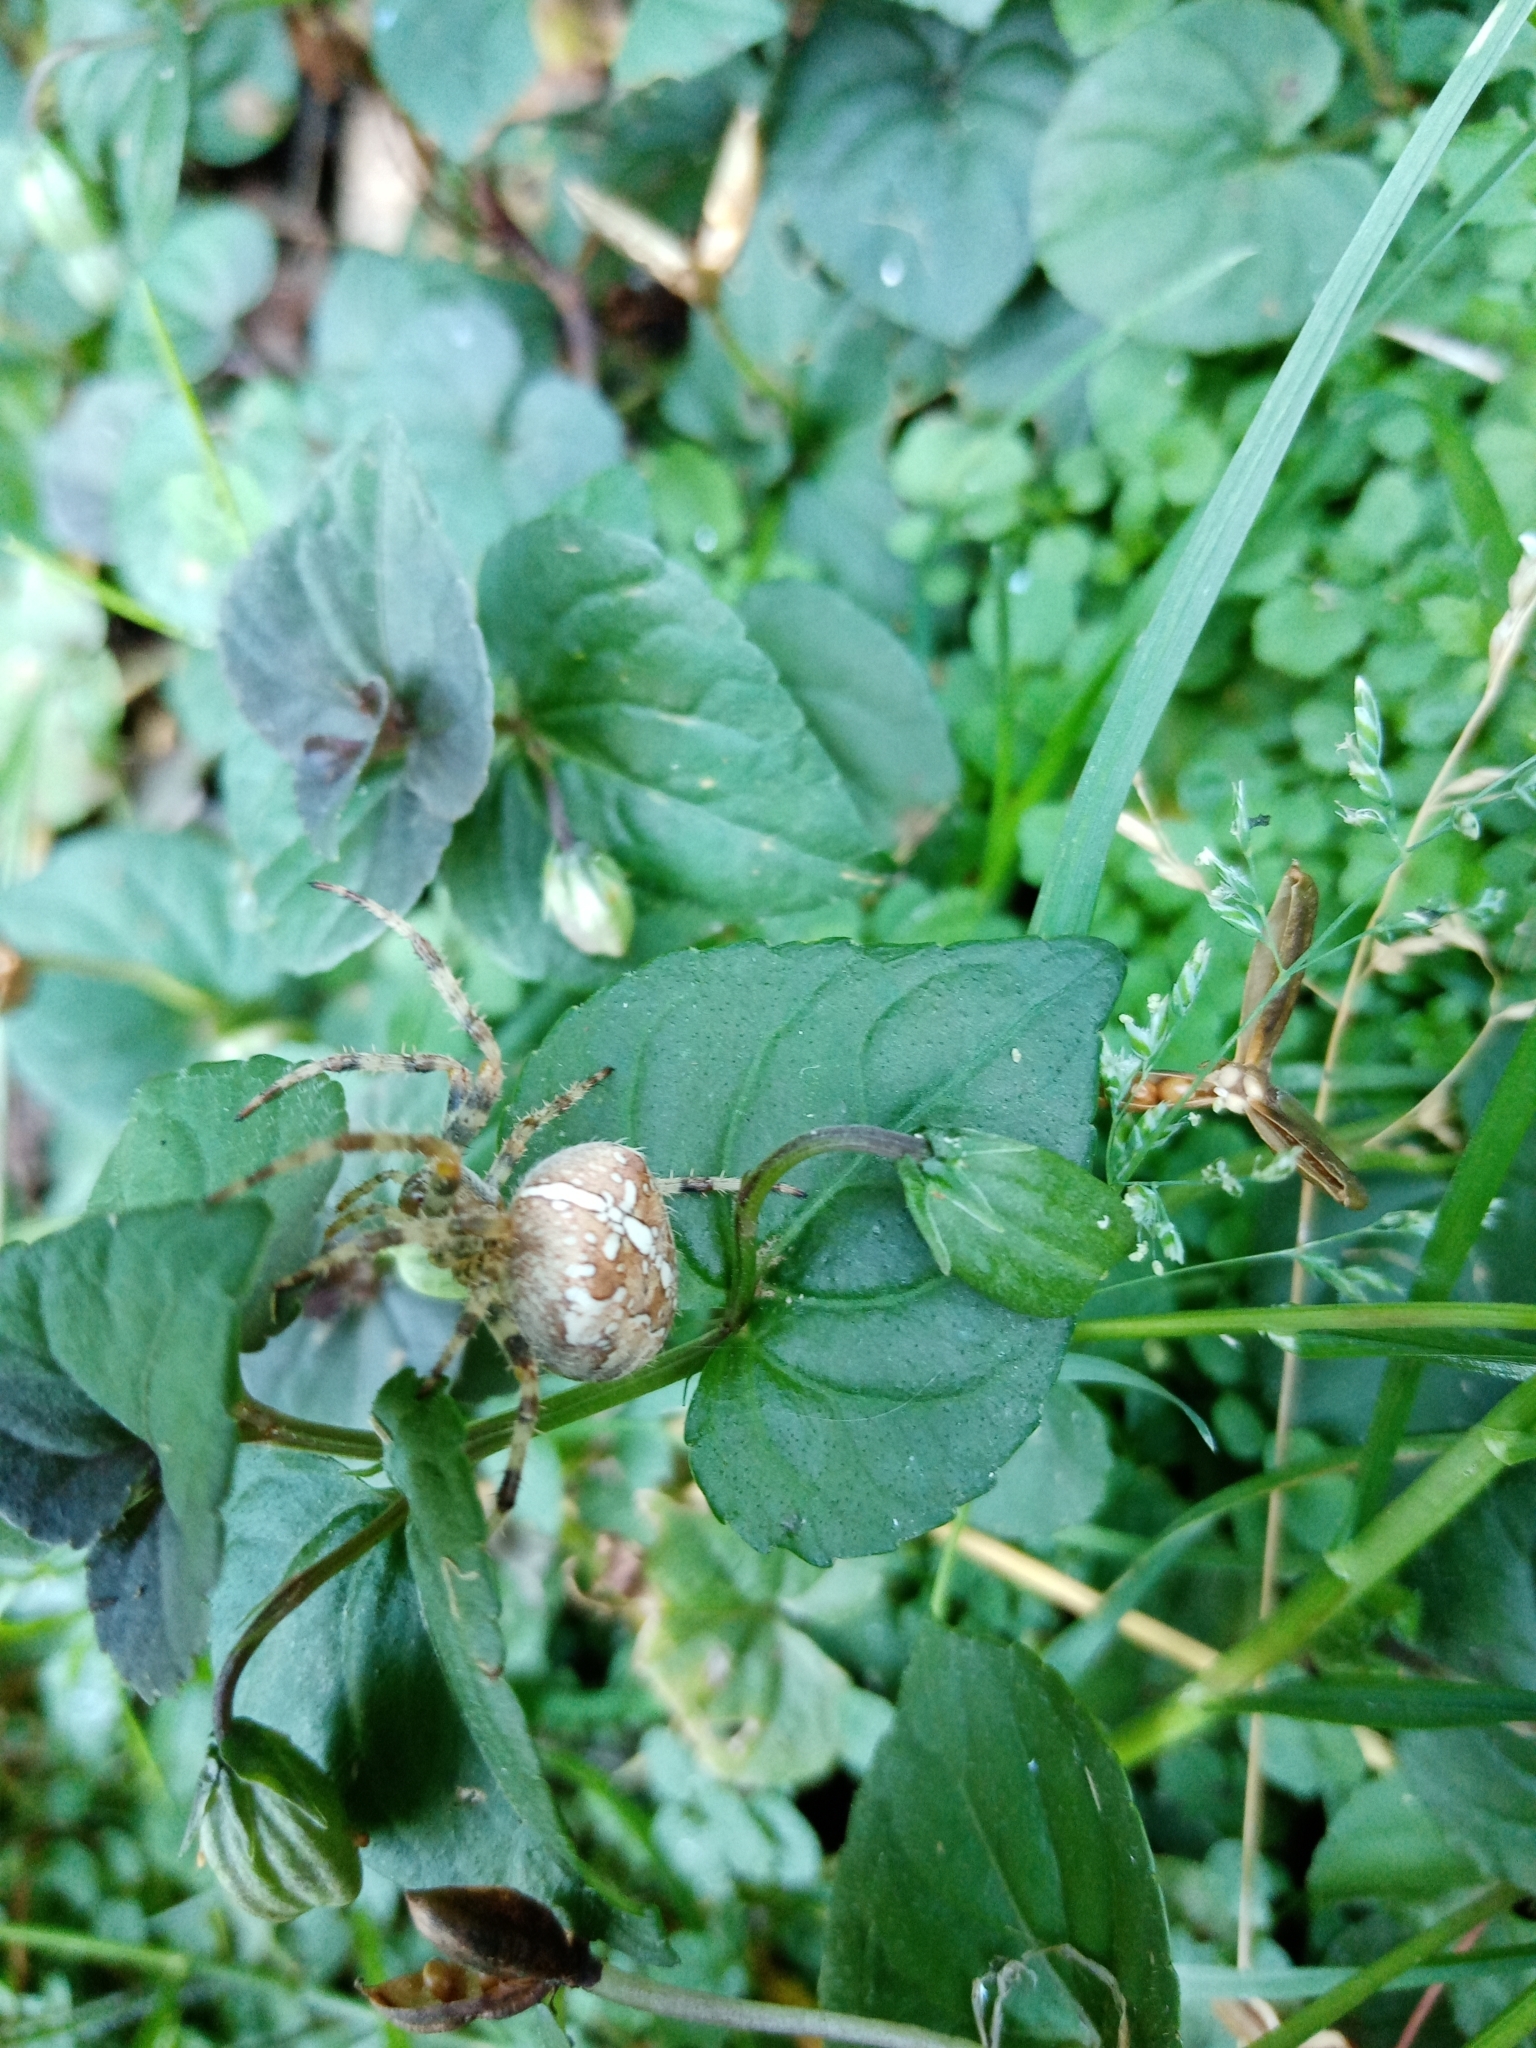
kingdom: Animalia
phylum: Arthropoda
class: Arachnida
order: Araneae
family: Araneidae
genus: Araneus
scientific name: Araneus diadematus
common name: Cross orbweaver
